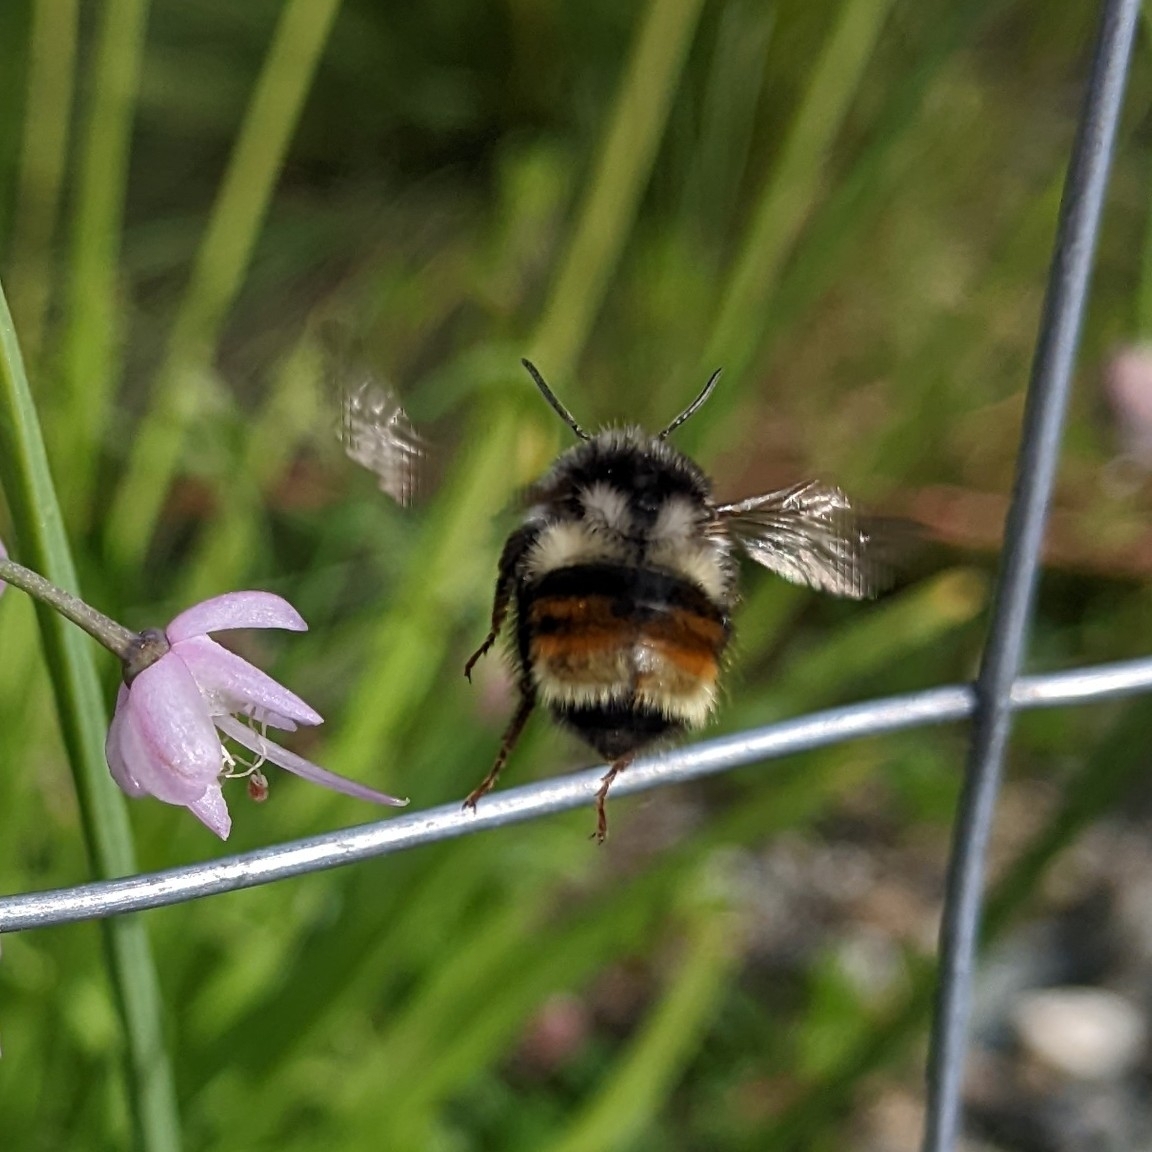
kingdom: Animalia
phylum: Arthropoda
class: Insecta
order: Hymenoptera
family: Apidae
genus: Bombus
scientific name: Bombus vancouverensis
